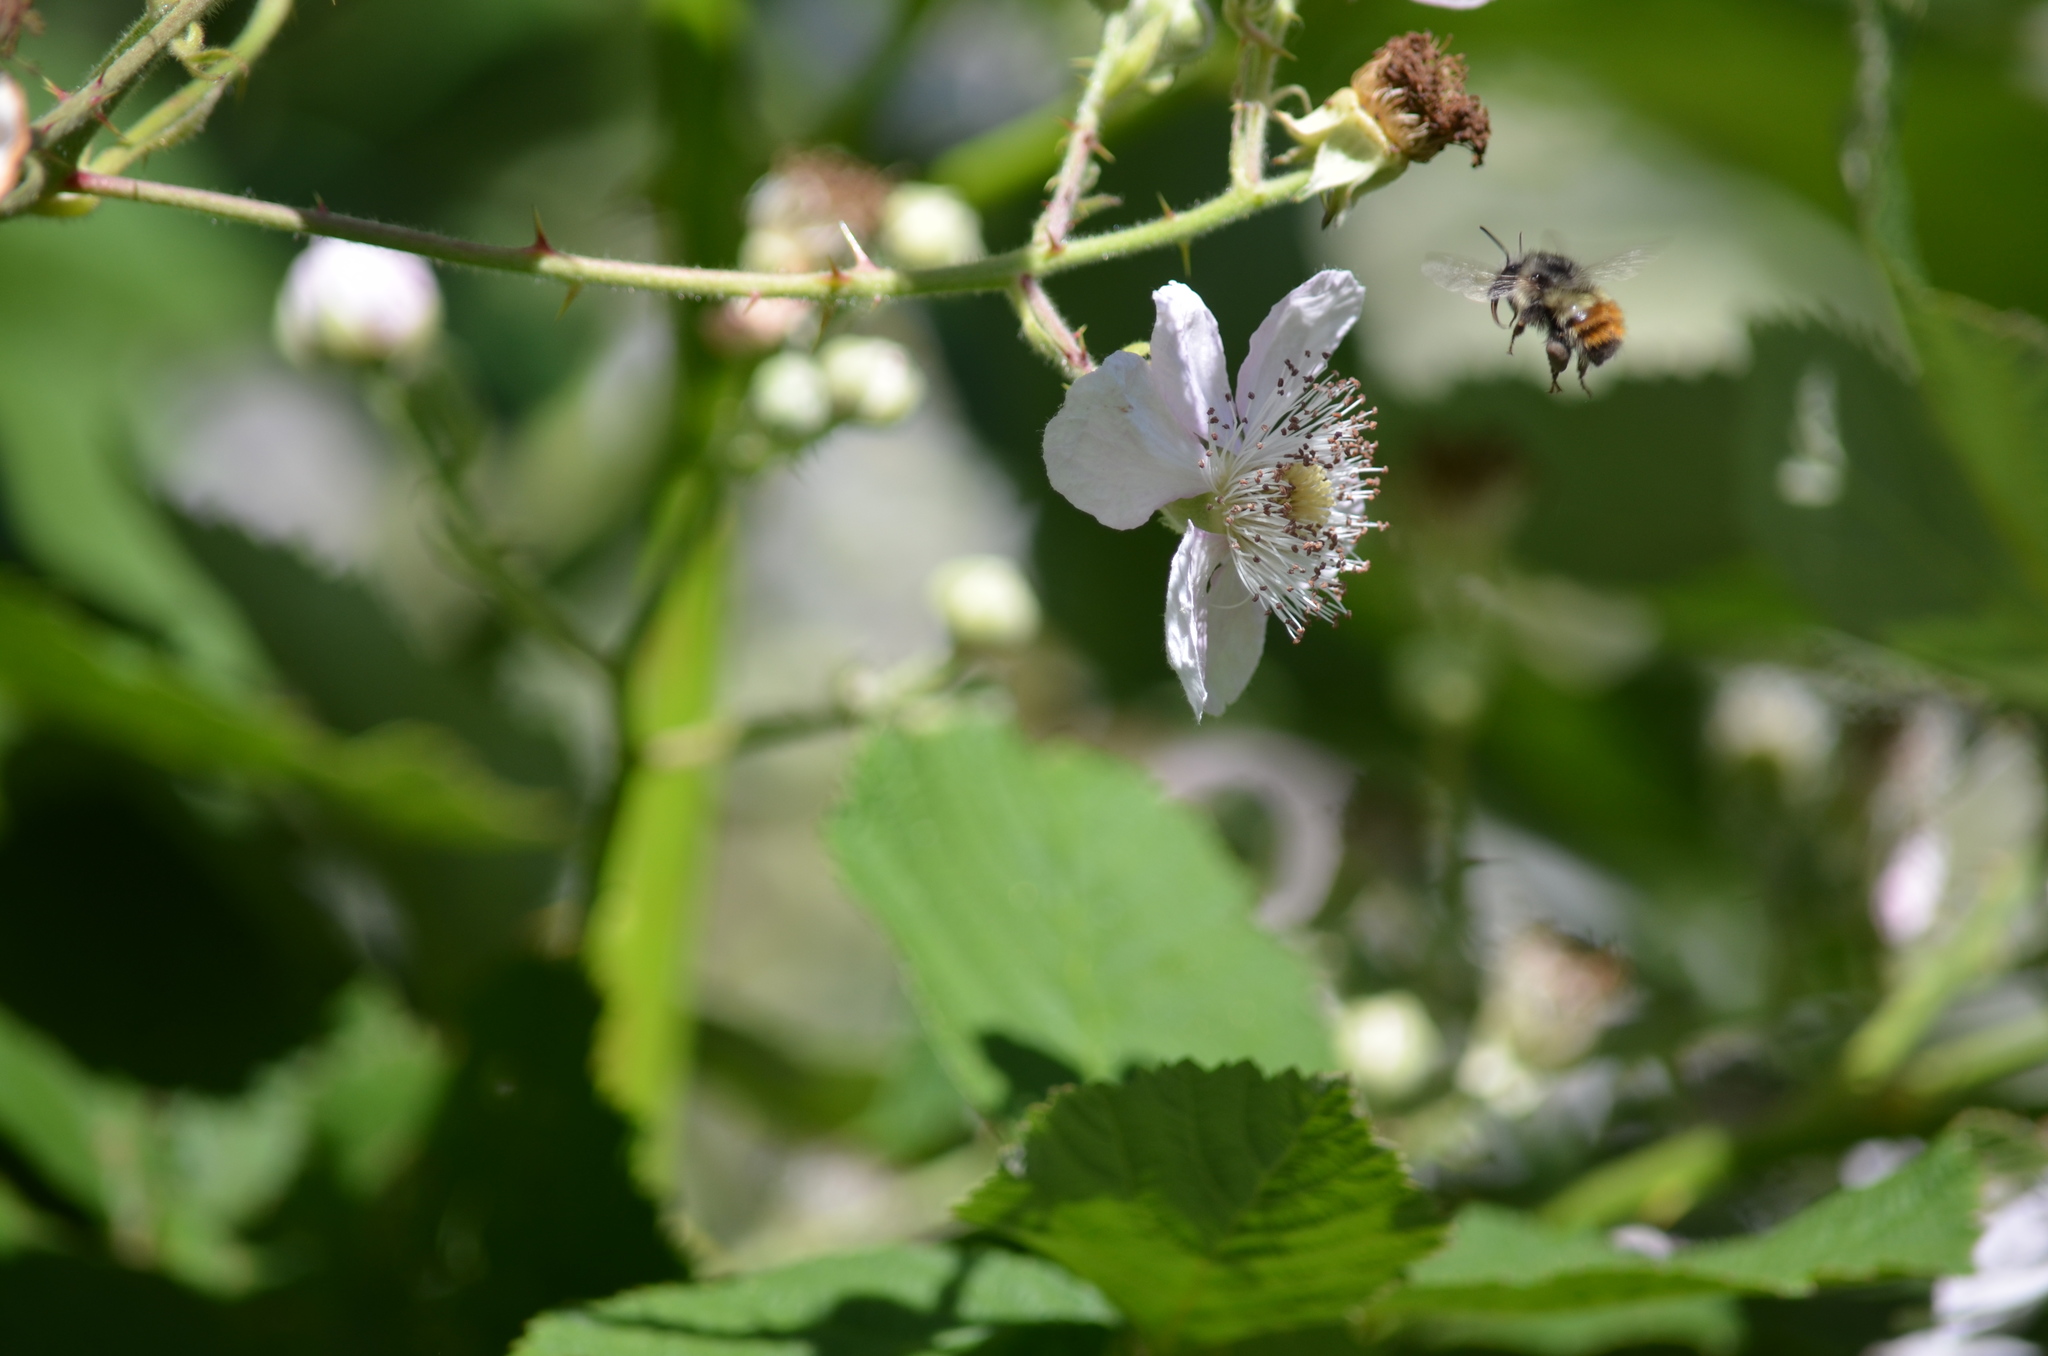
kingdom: Animalia
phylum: Arthropoda
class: Insecta
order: Hymenoptera
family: Apidae
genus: Bombus
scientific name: Bombus melanopygus
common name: Black tail bumble bee
